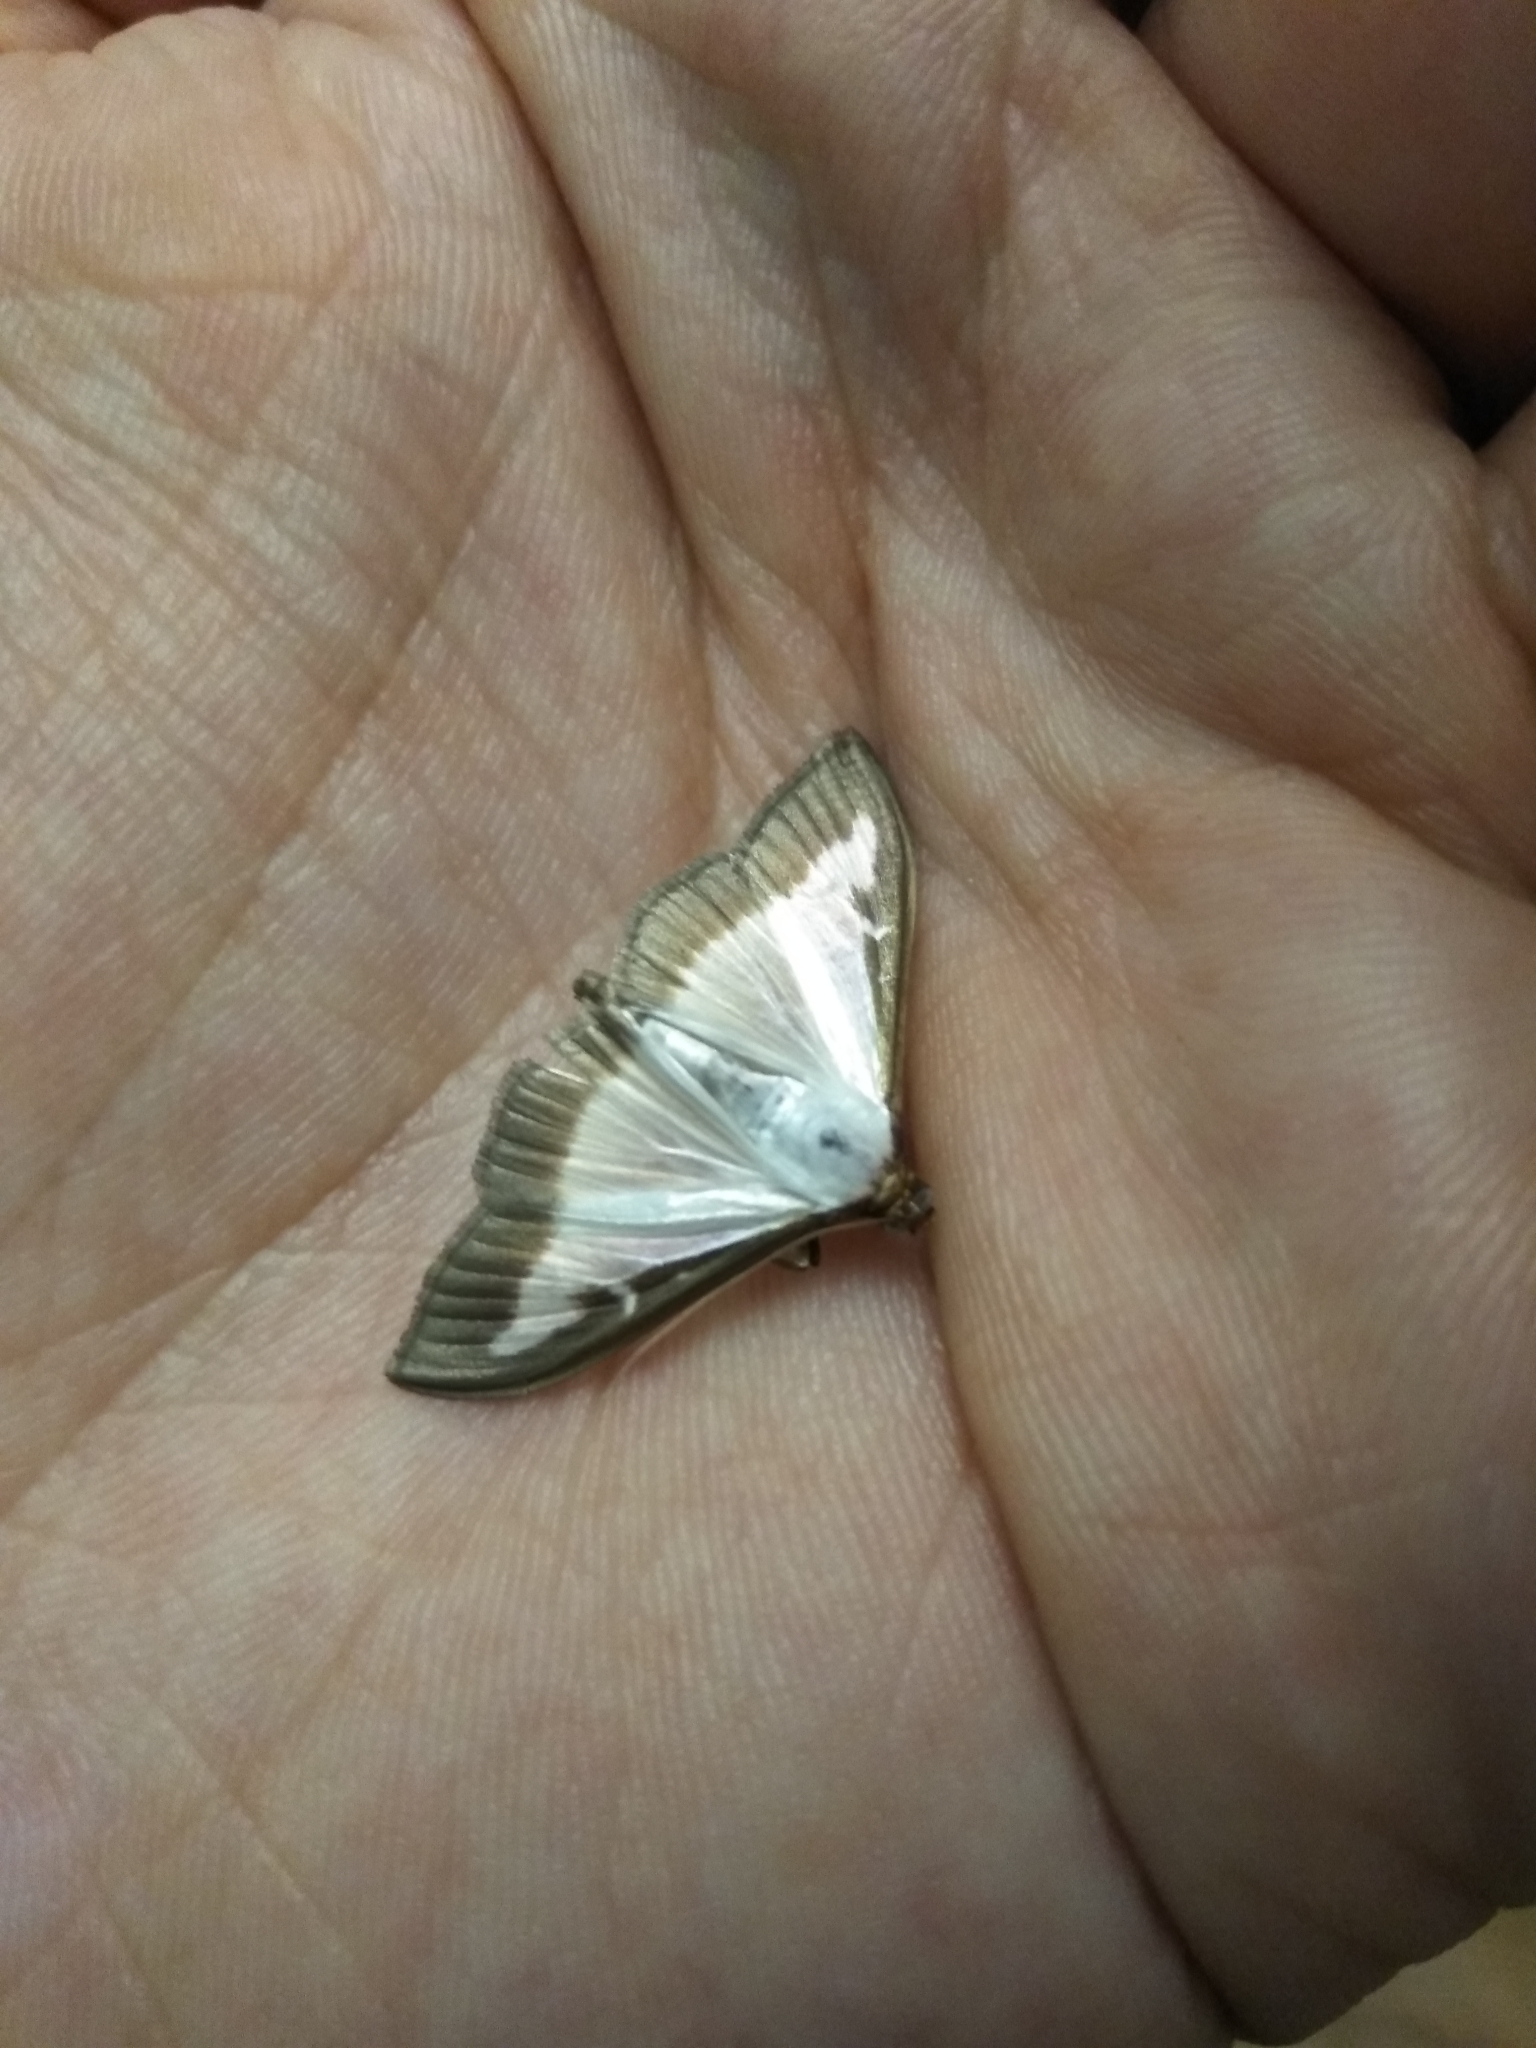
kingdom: Animalia
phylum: Arthropoda
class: Insecta
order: Lepidoptera
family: Crambidae
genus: Cydalima
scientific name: Cydalima perspectalis
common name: Box tree moth
